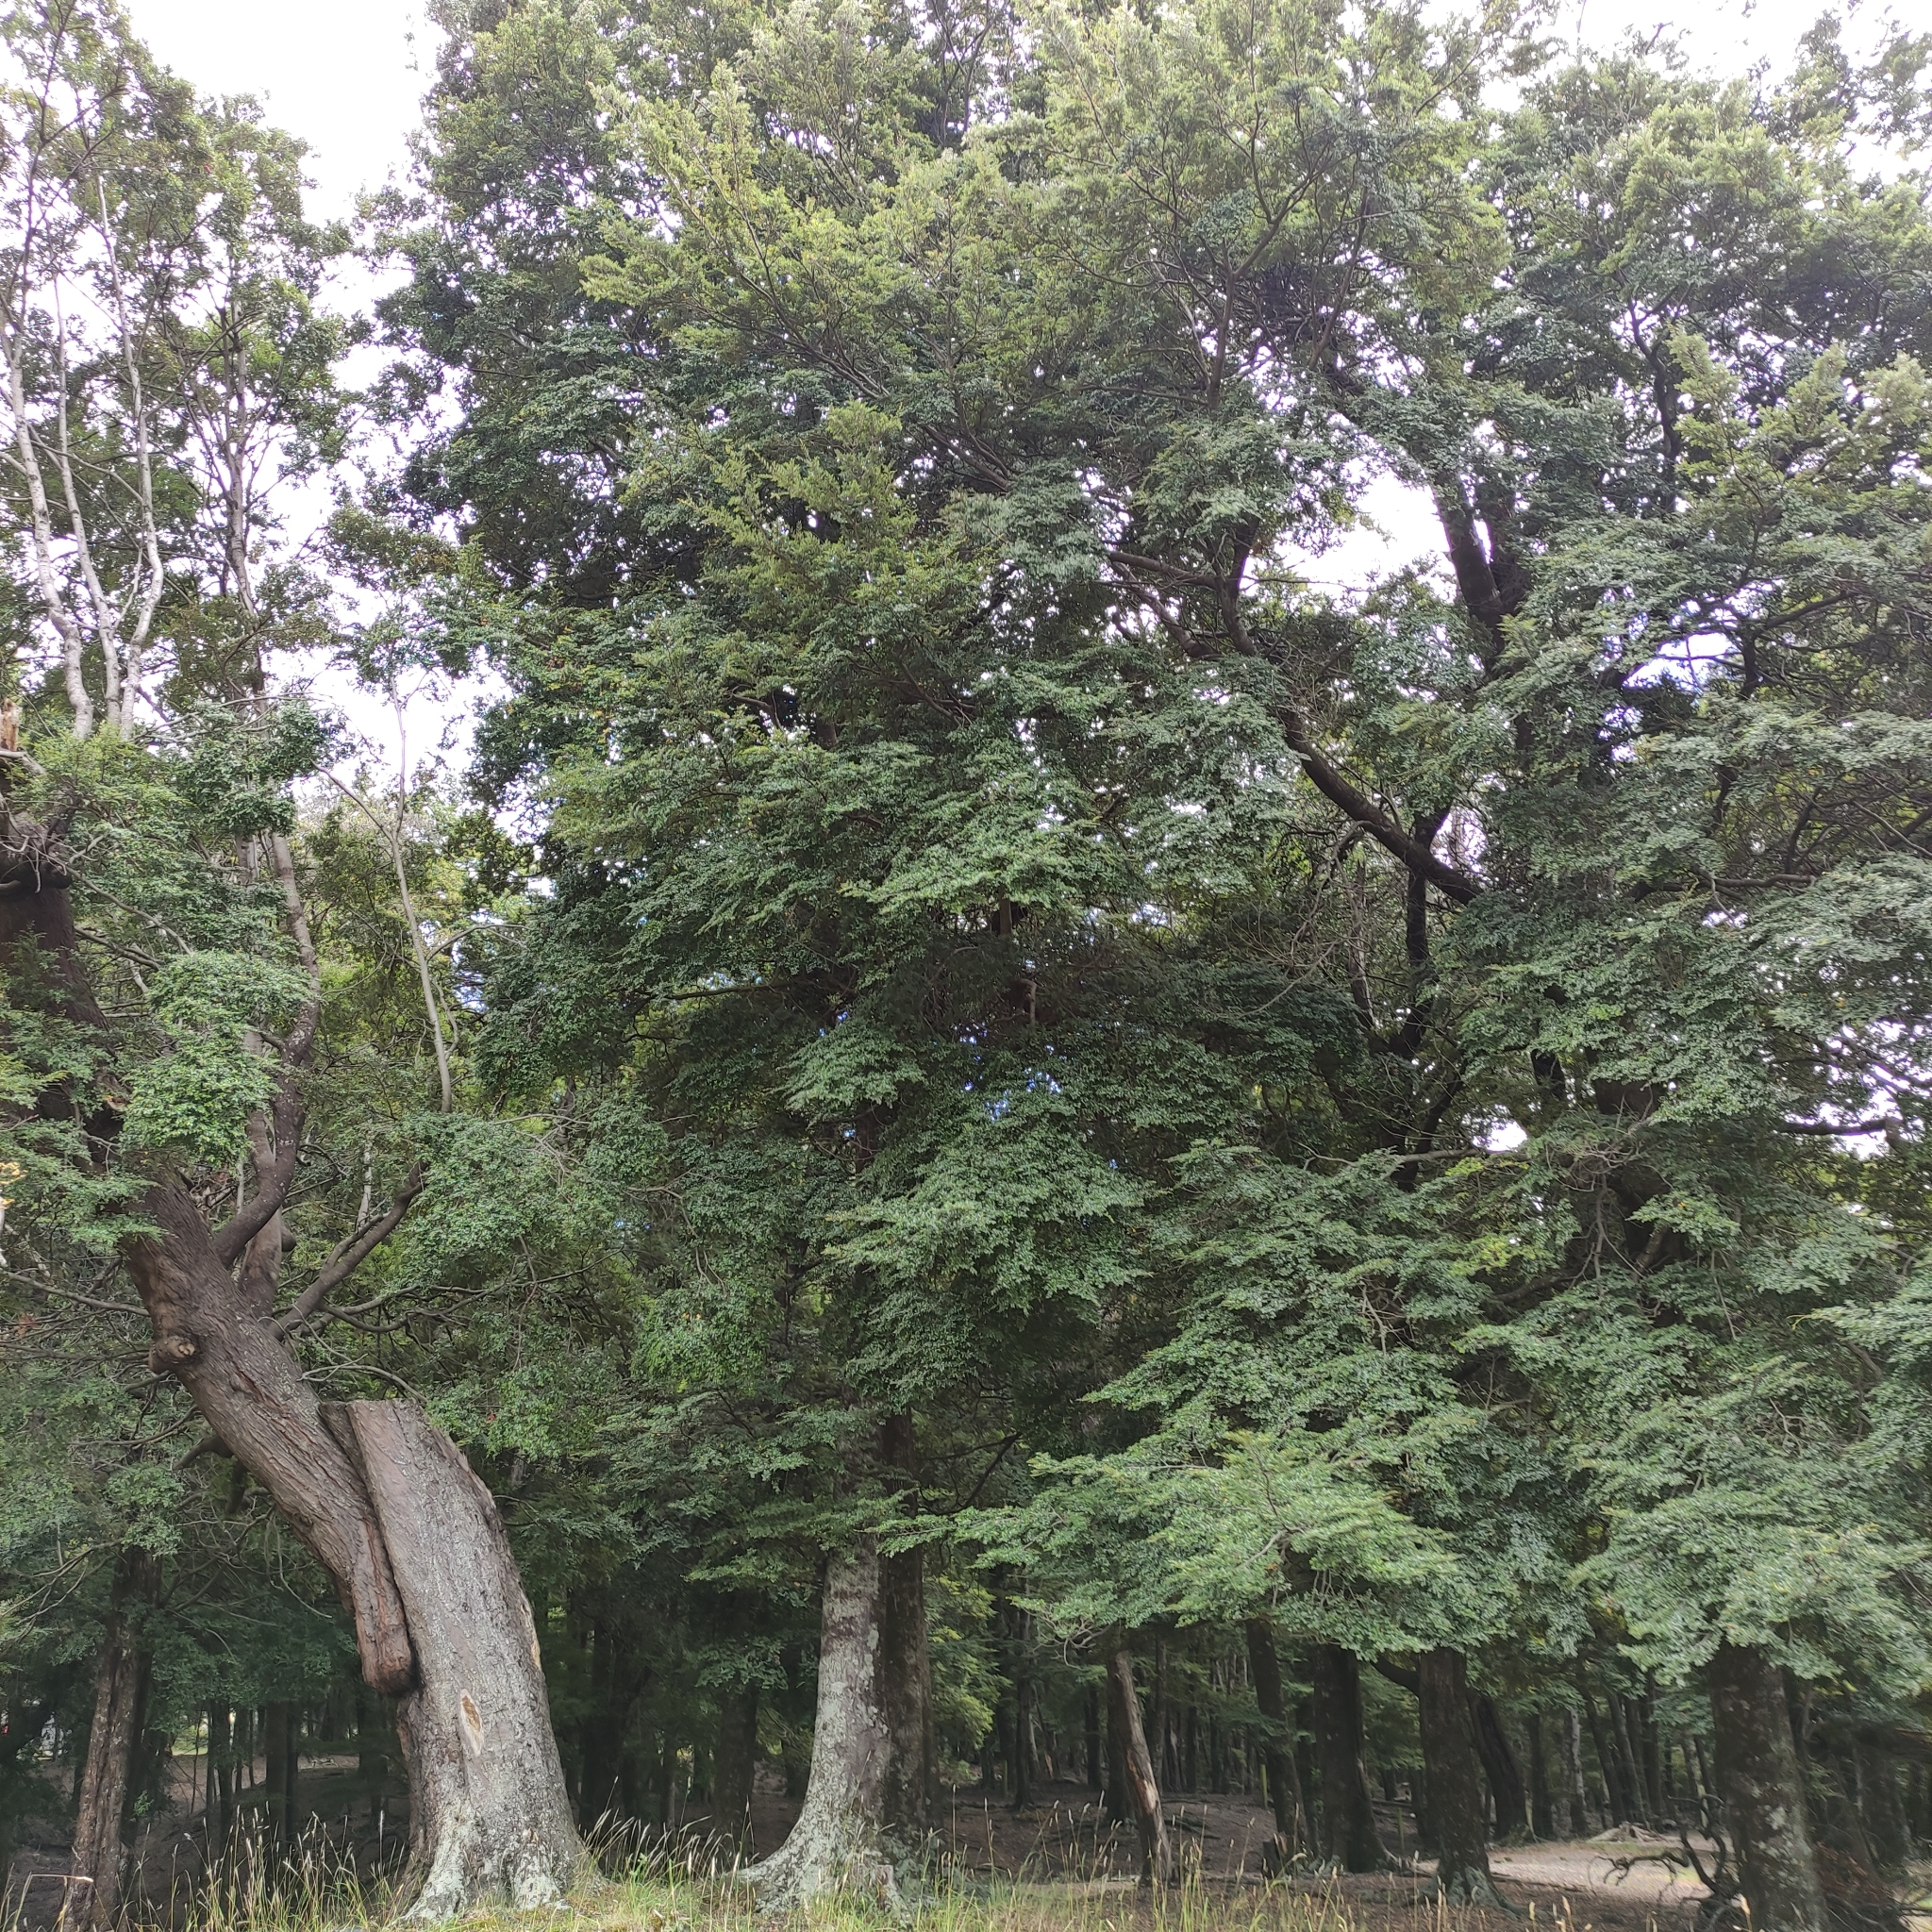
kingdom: Plantae
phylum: Tracheophyta
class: Magnoliopsida
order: Fagales
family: Nothofagaceae
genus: Nothofagus
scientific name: Nothofagus cliffortioides
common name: Mountain beech
